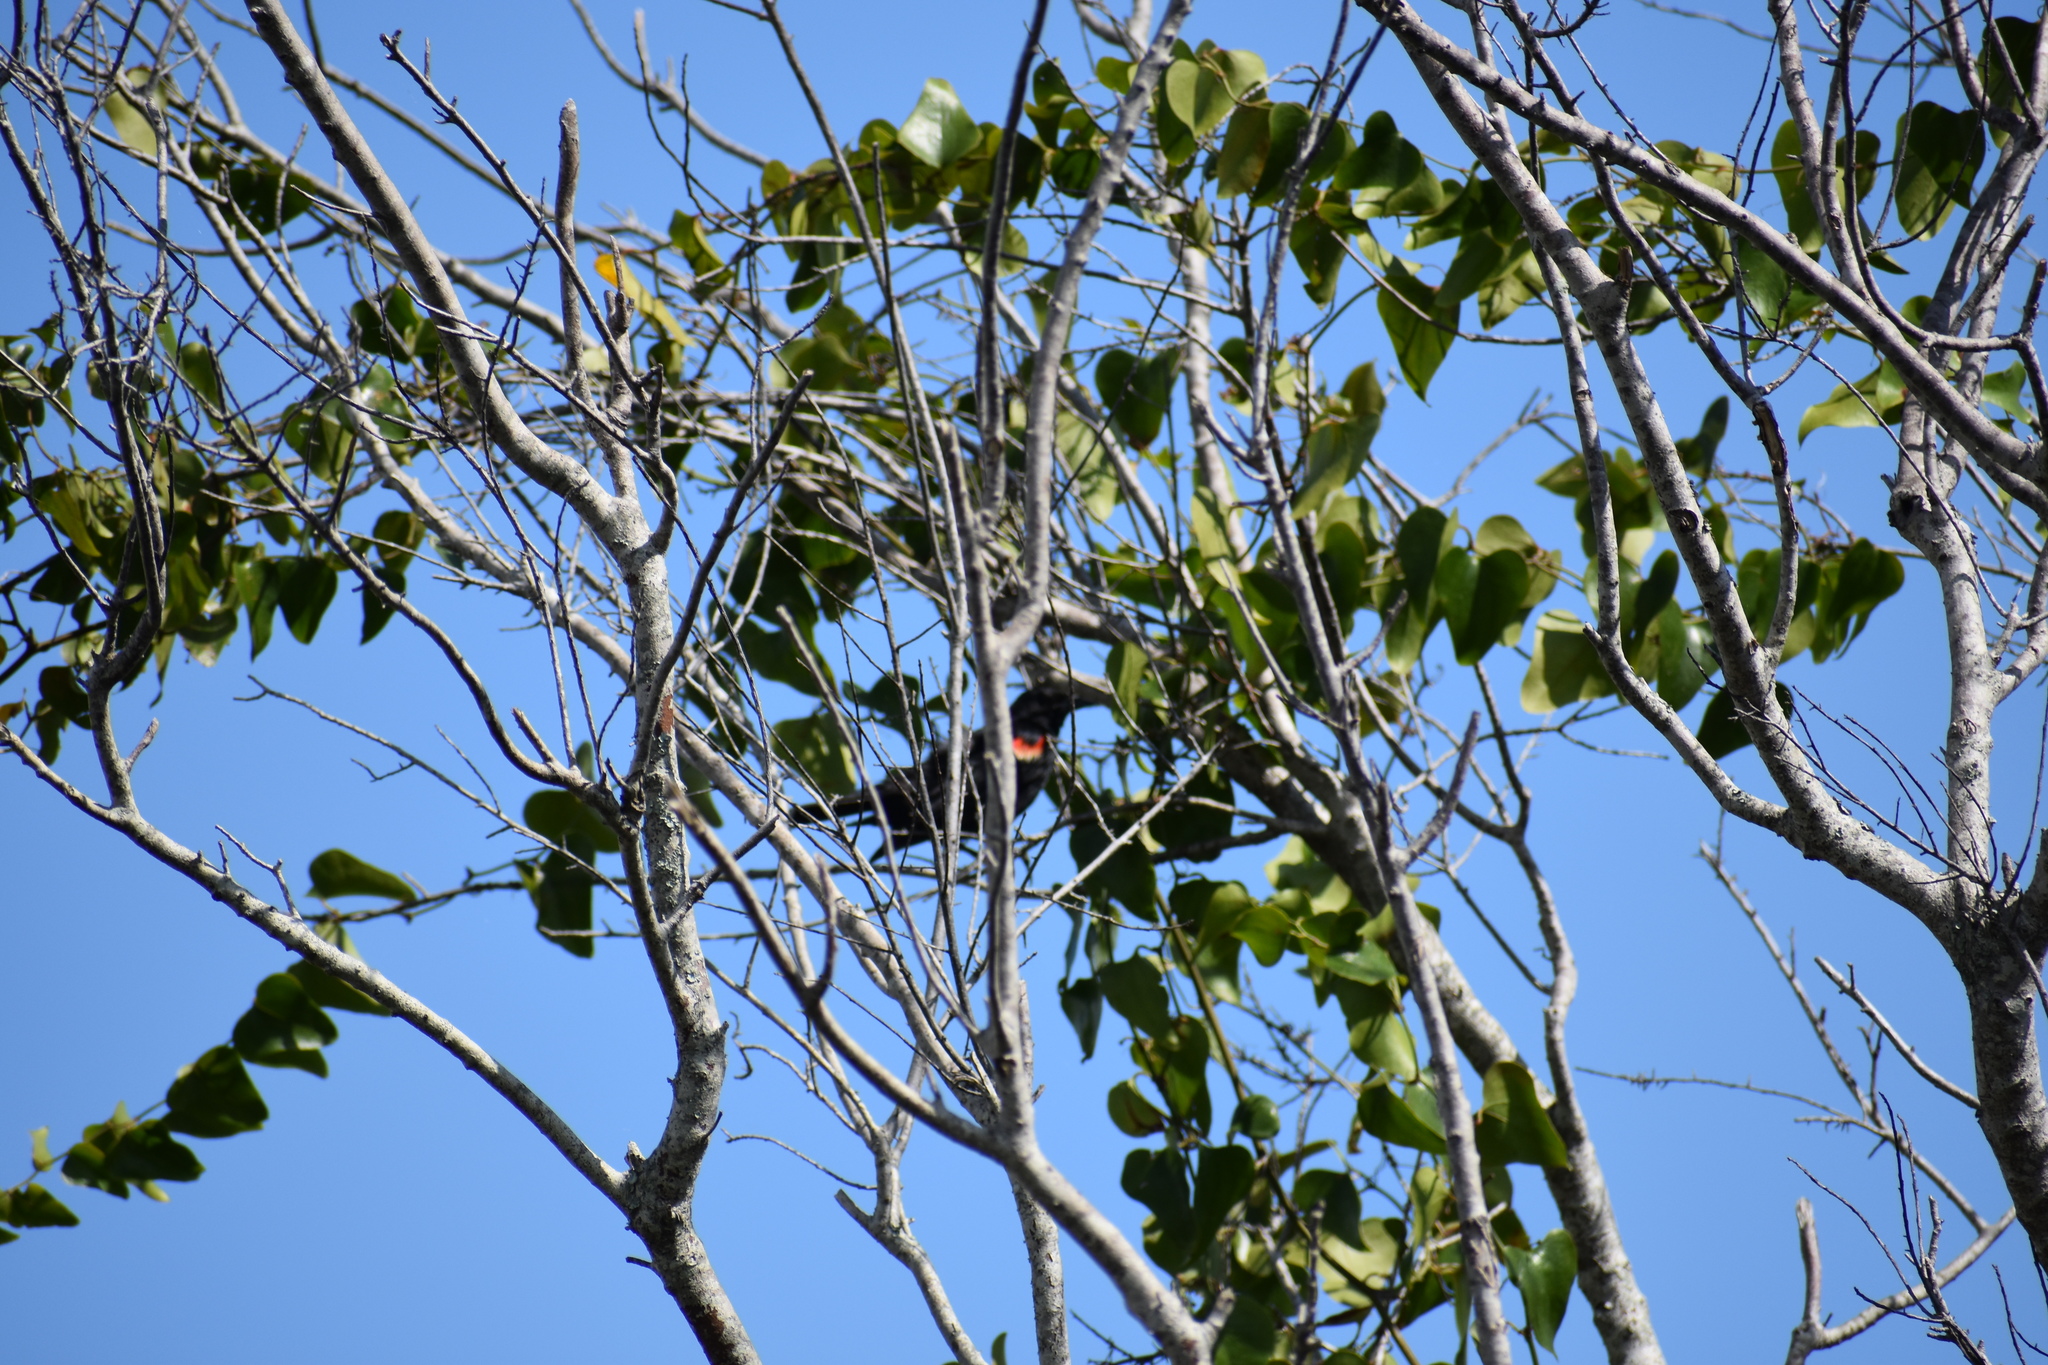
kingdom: Animalia
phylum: Chordata
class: Aves
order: Passeriformes
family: Icteridae
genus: Agelaius
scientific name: Agelaius phoeniceus
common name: Red-winged blackbird
